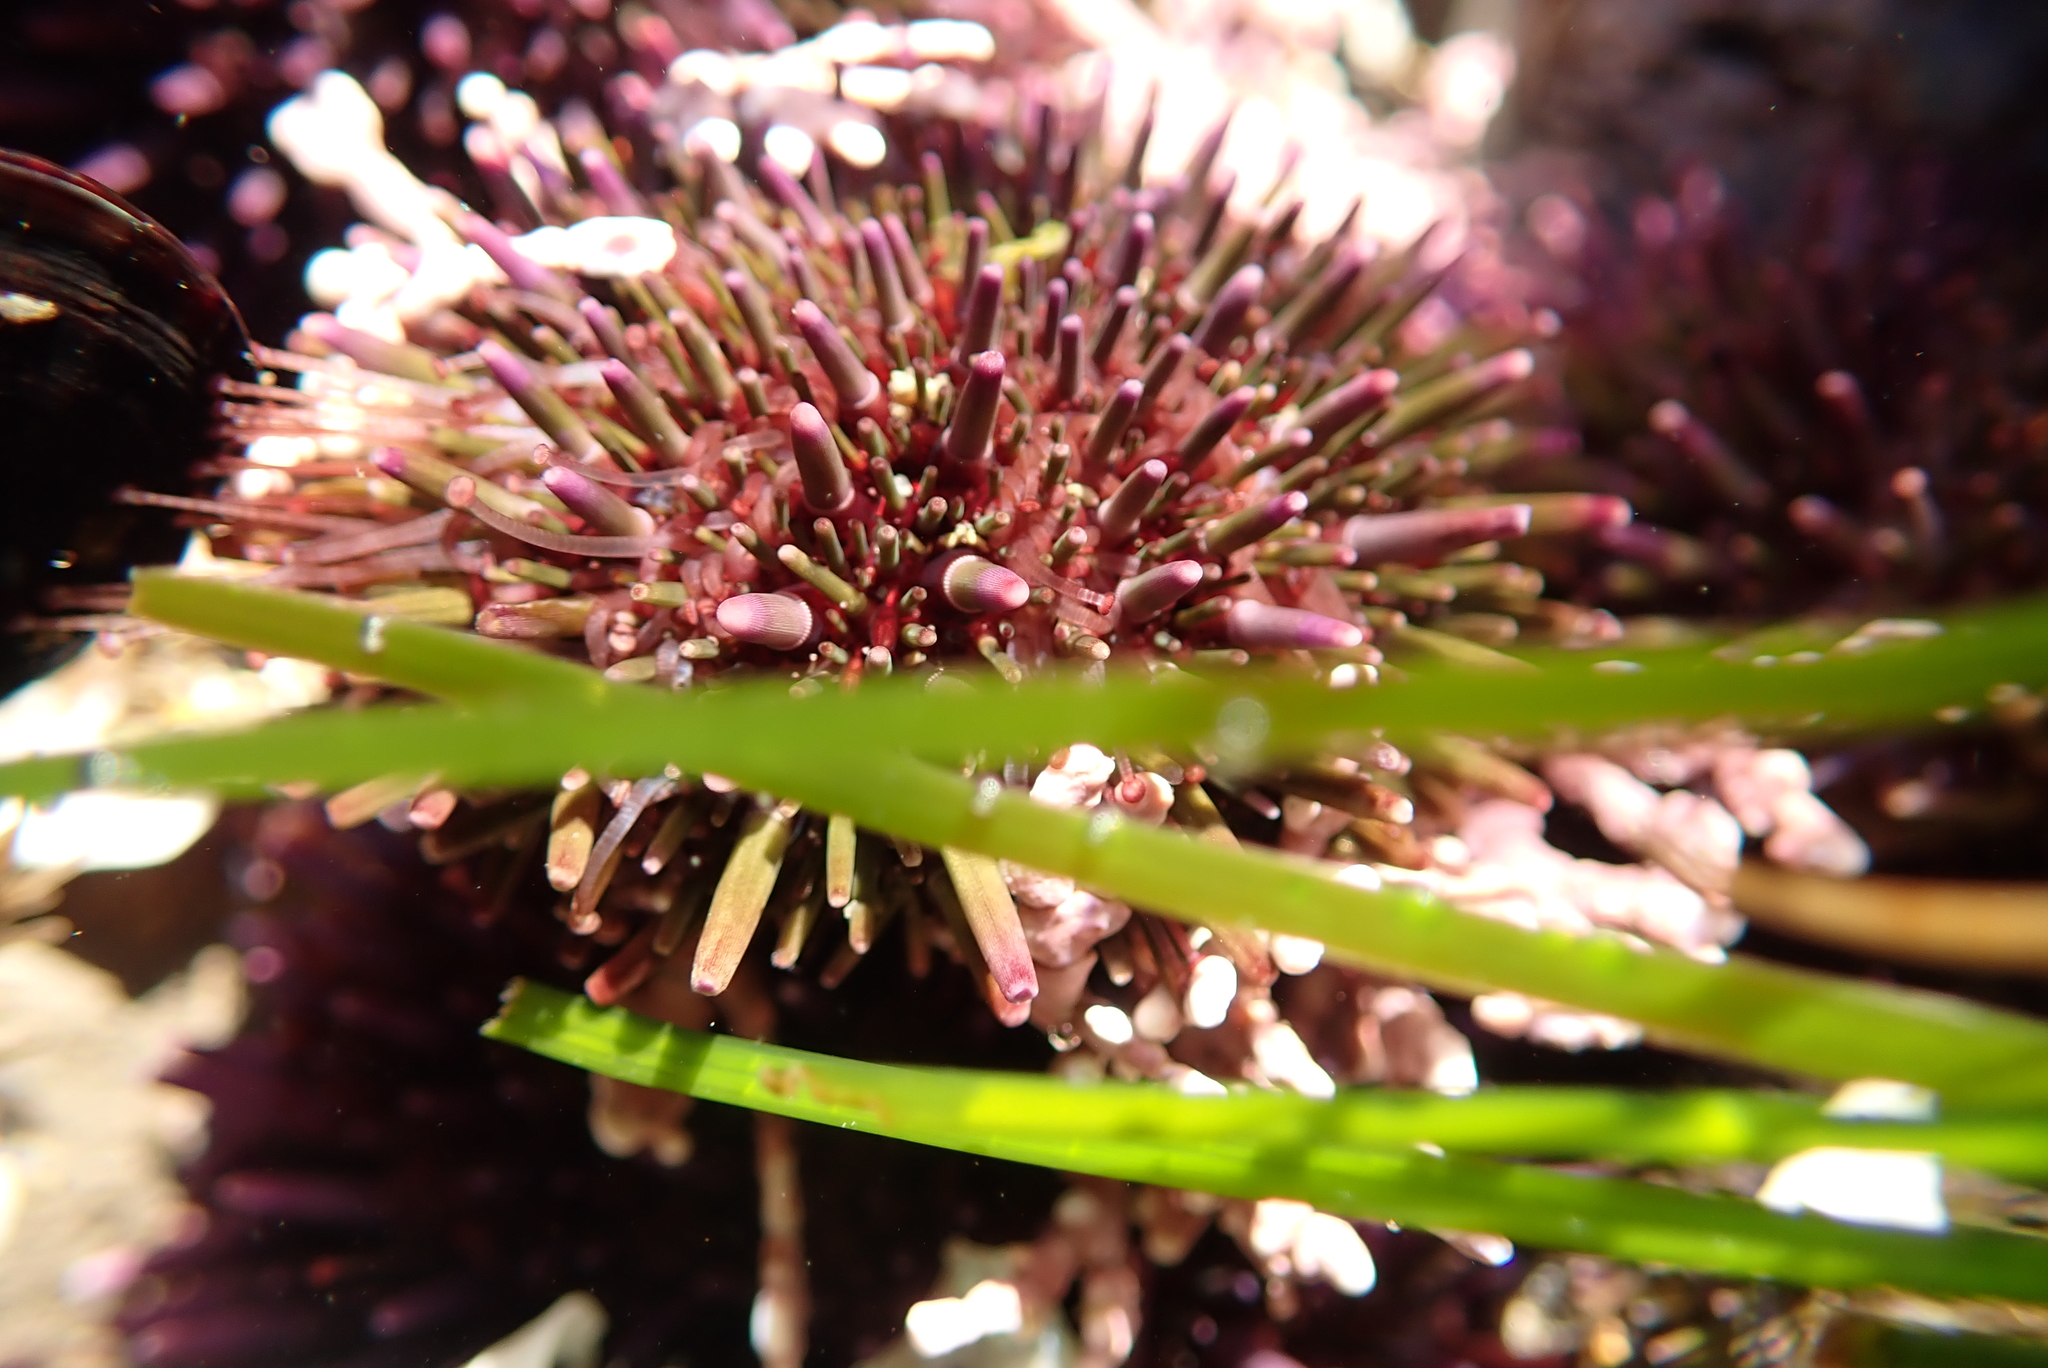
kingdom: Animalia
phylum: Echinodermata
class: Echinoidea
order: Camarodonta
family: Strongylocentrotidae
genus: Strongylocentrotus
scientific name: Strongylocentrotus purpuratus
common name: Purple sea urchin
